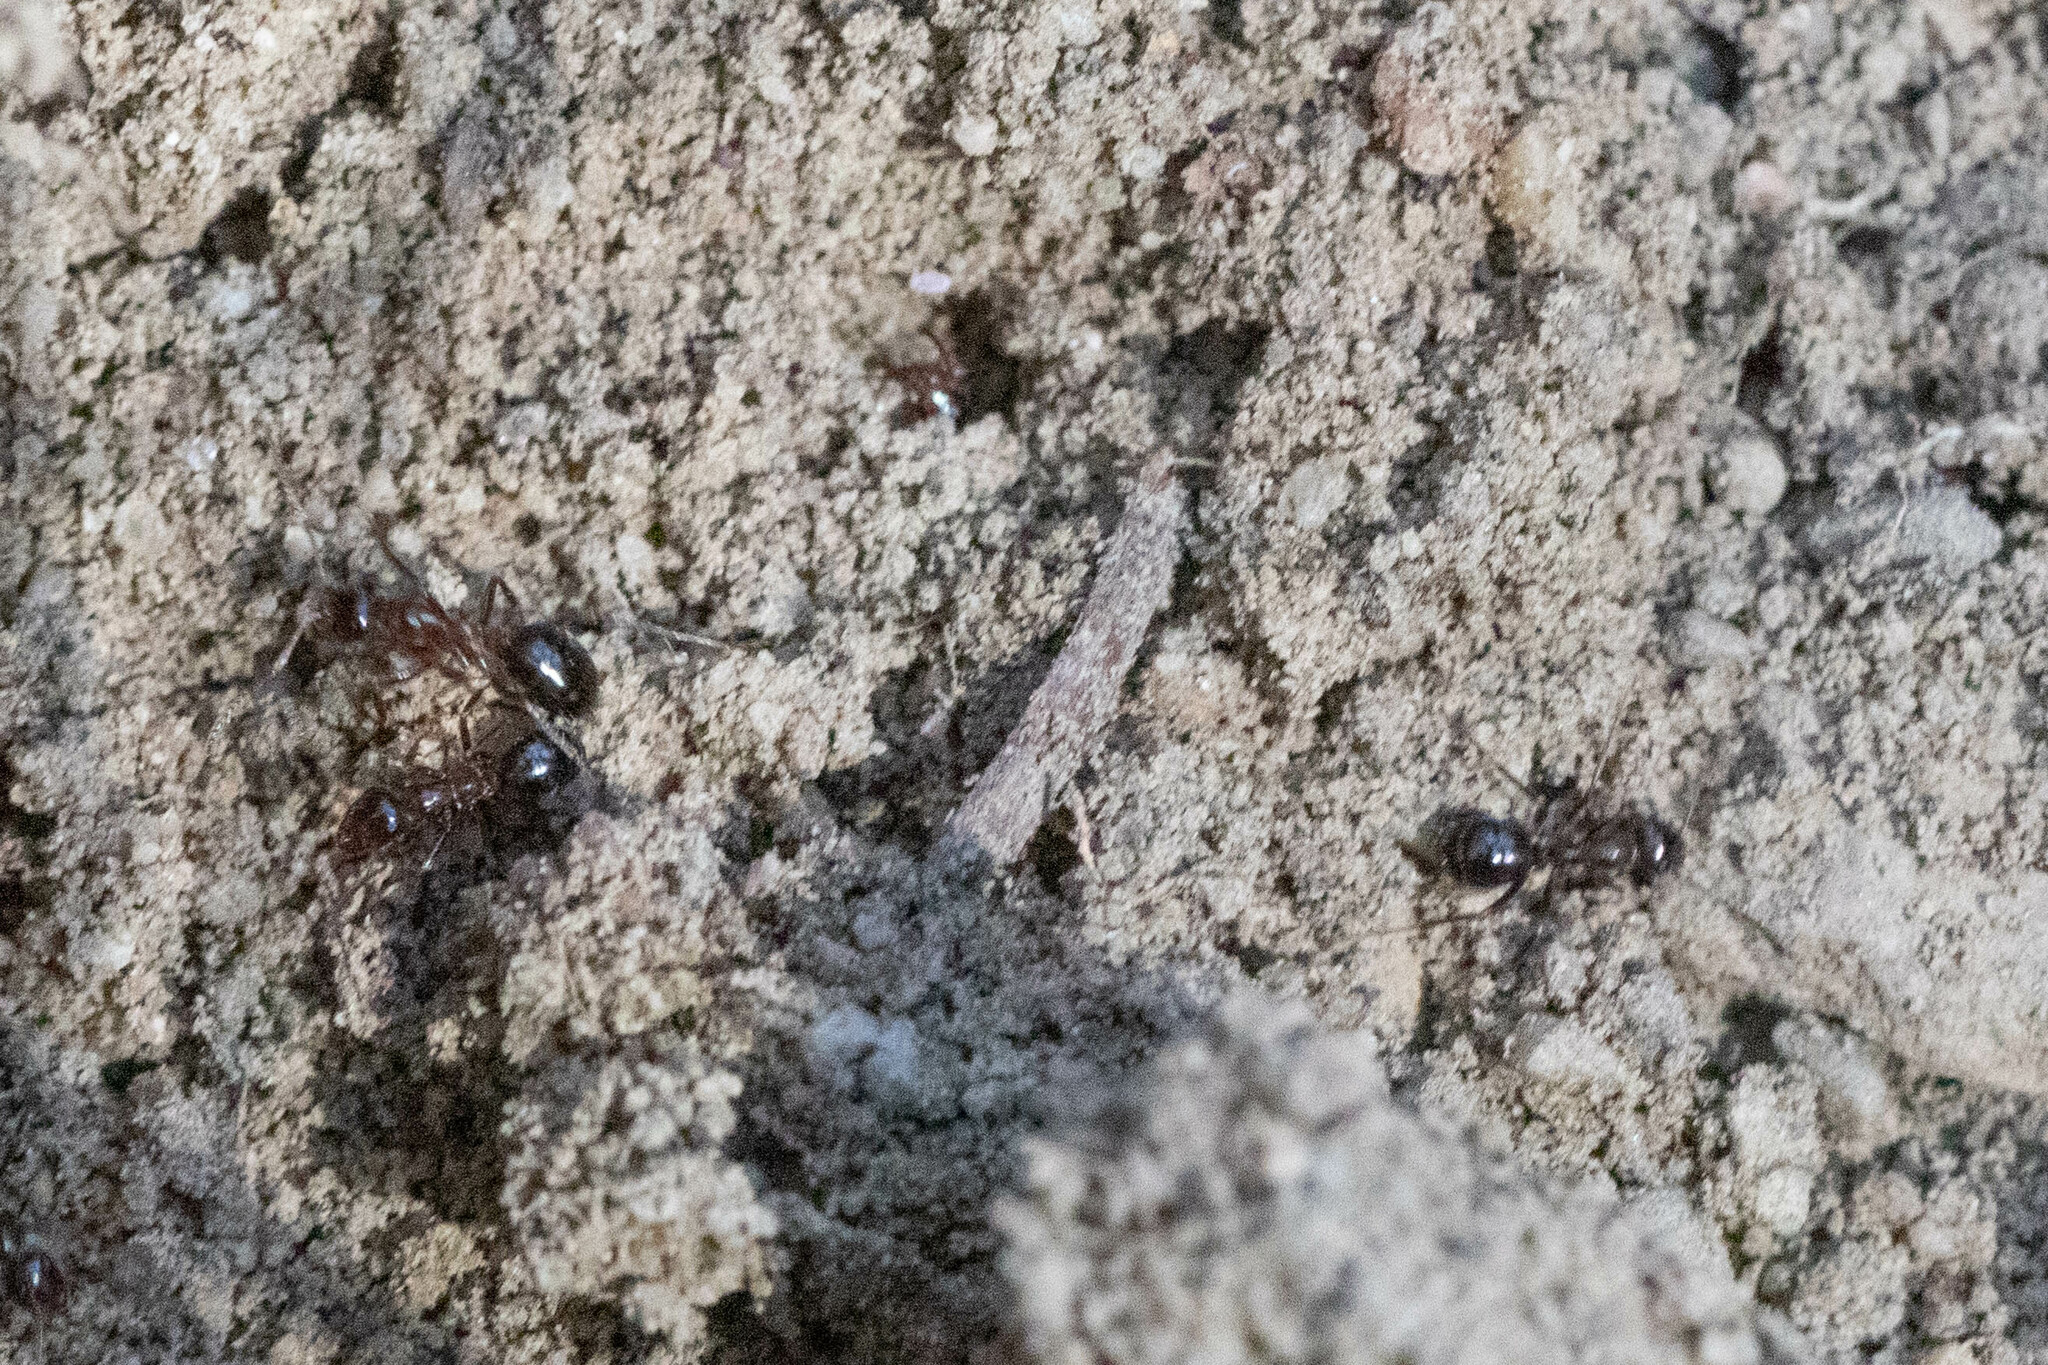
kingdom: Animalia
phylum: Arthropoda
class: Insecta
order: Hymenoptera
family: Formicidae
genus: Formica
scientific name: Formica subpolita
